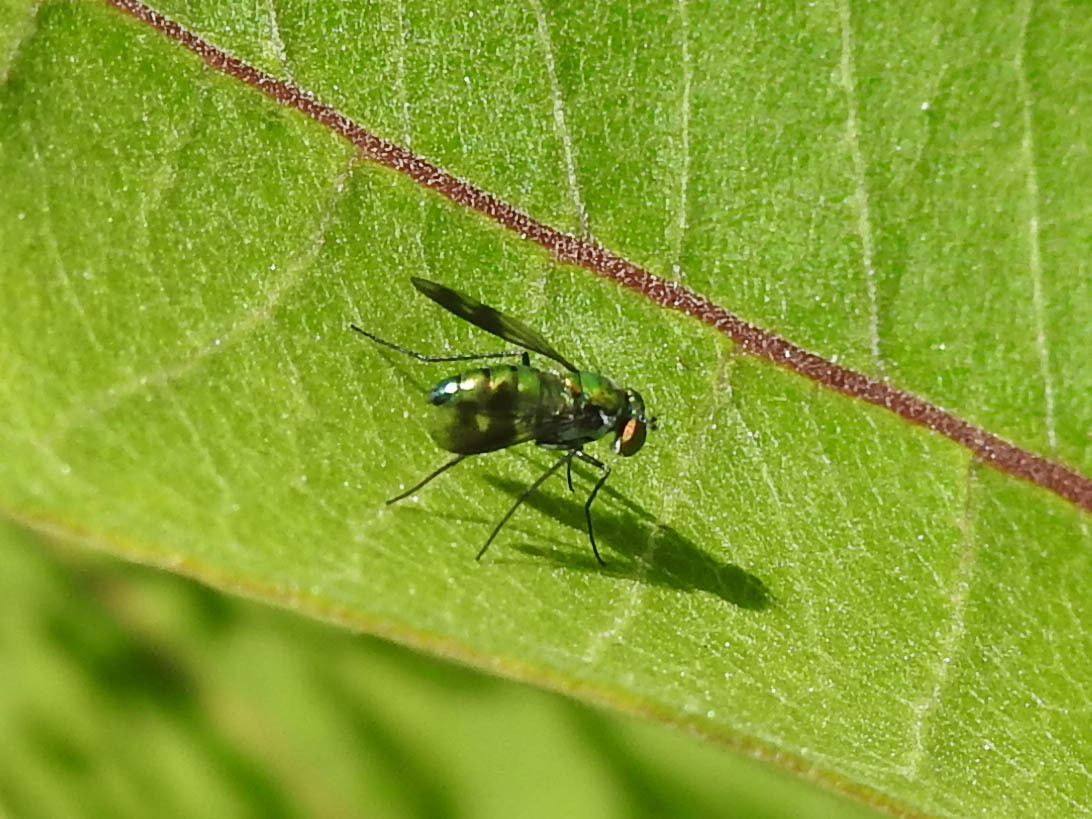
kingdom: Animalia
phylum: Arthropoda
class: Insecta
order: Diptera
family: Dolichopodidae
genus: Condylostylus
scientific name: Condylostylus patibulatus
